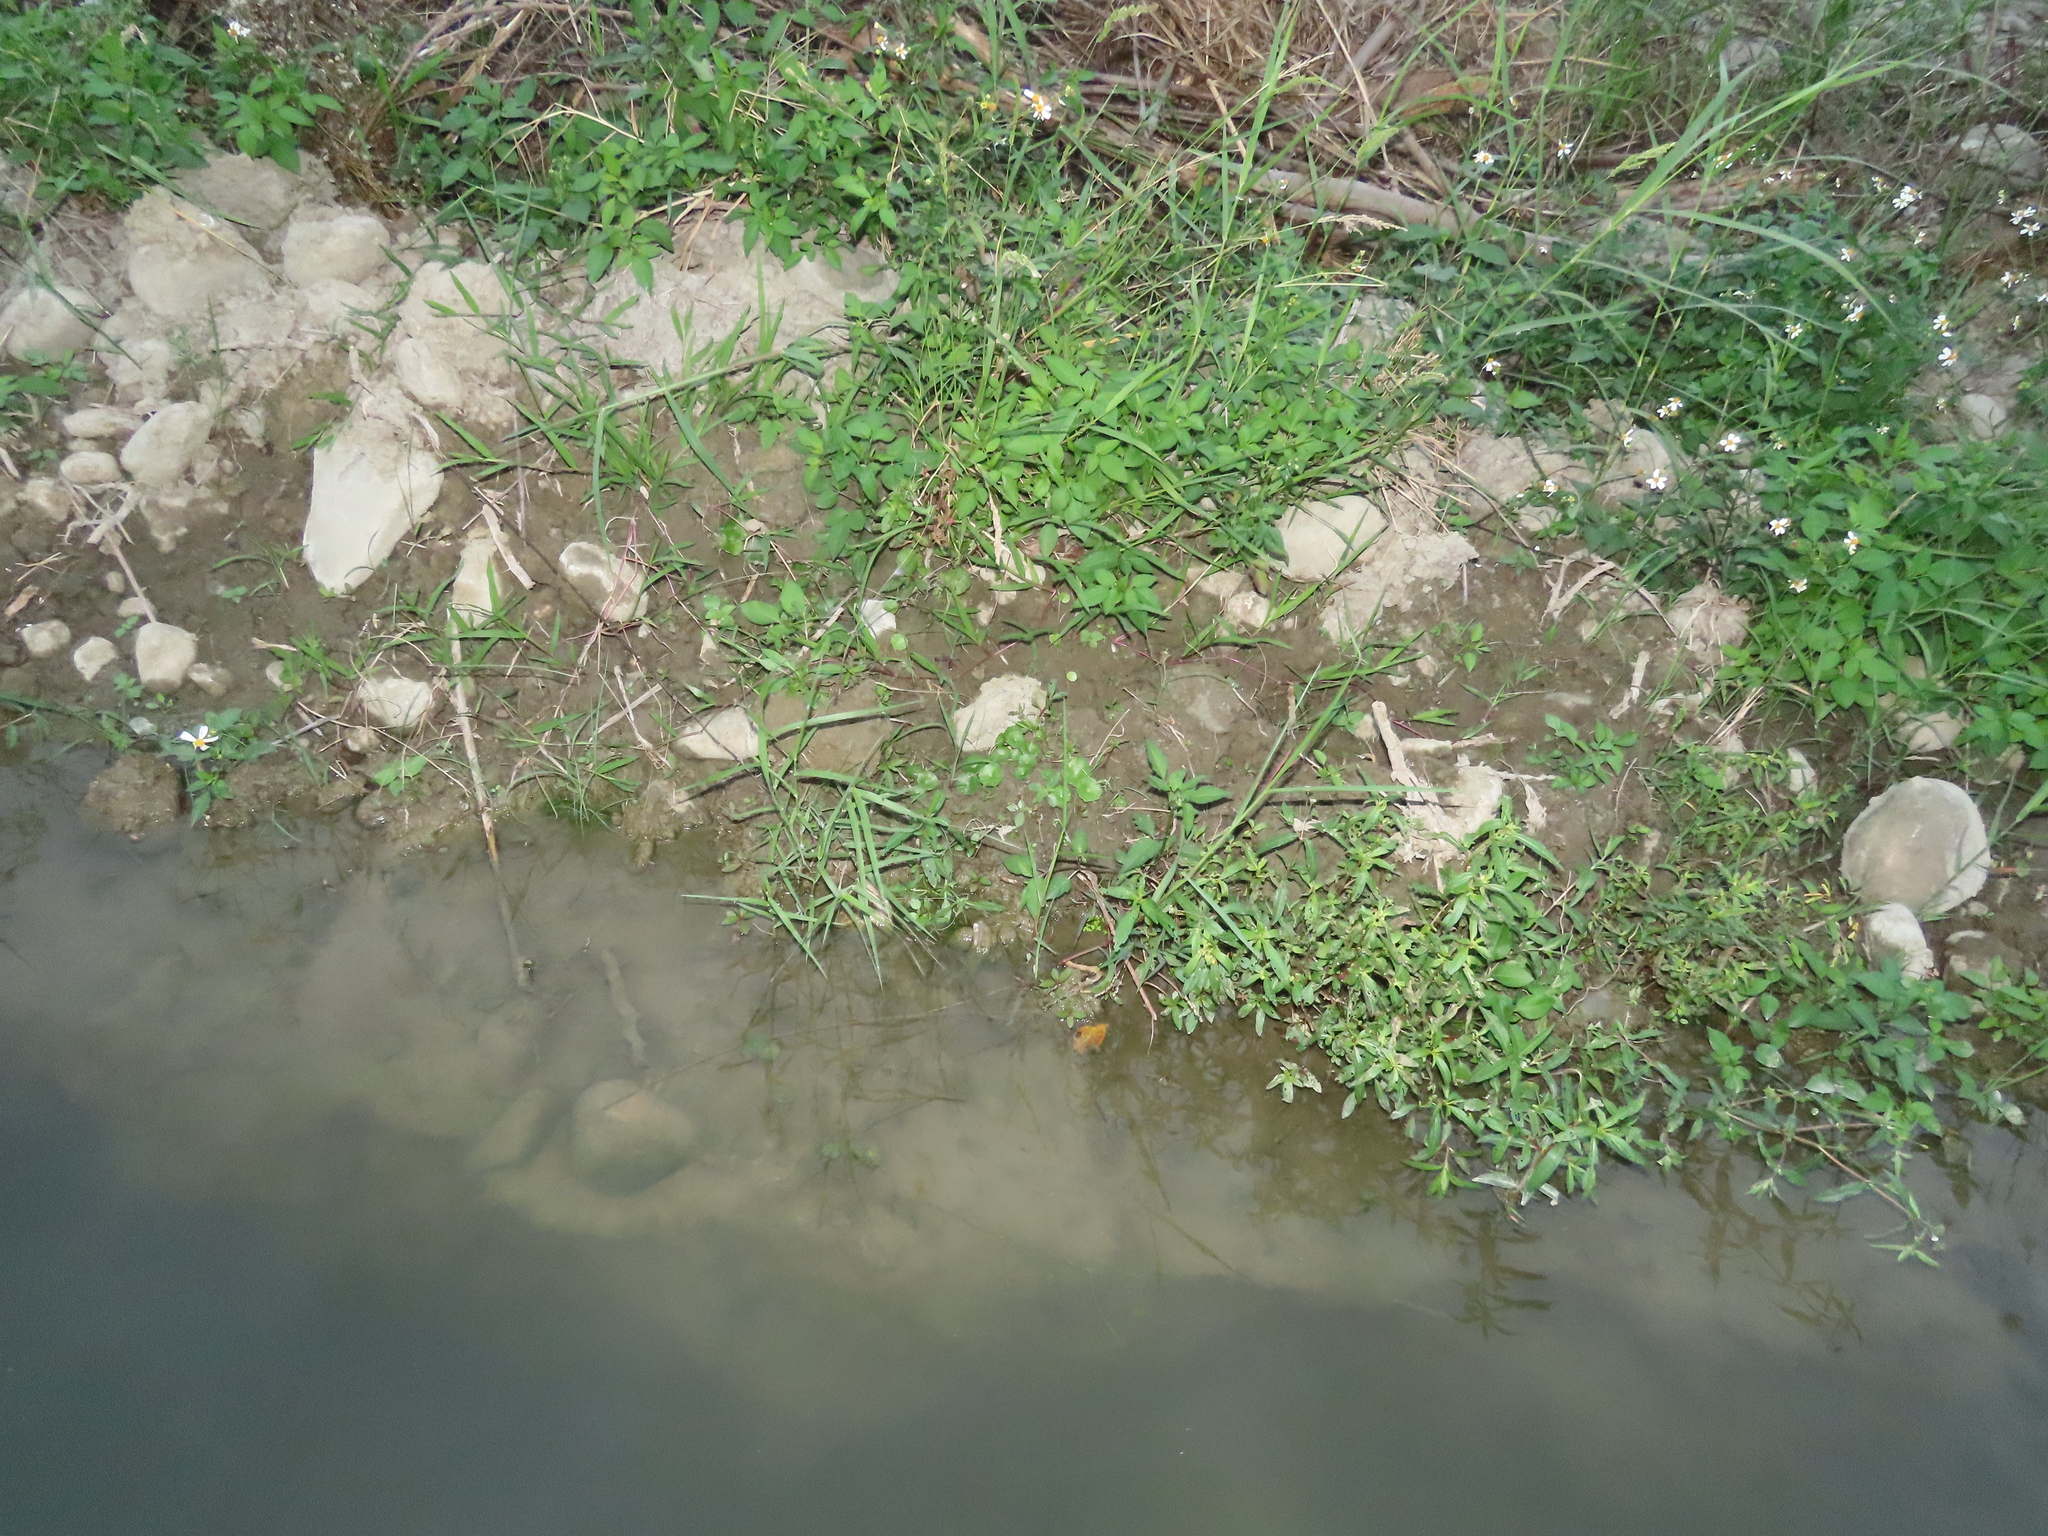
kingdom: Plantae
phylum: Tracheophyta
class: Magnoliopsida
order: Apiales
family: Araliaceae
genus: Hydrocotyle
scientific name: Hydrocotyle verticillata
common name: Whorled marshpennywort
